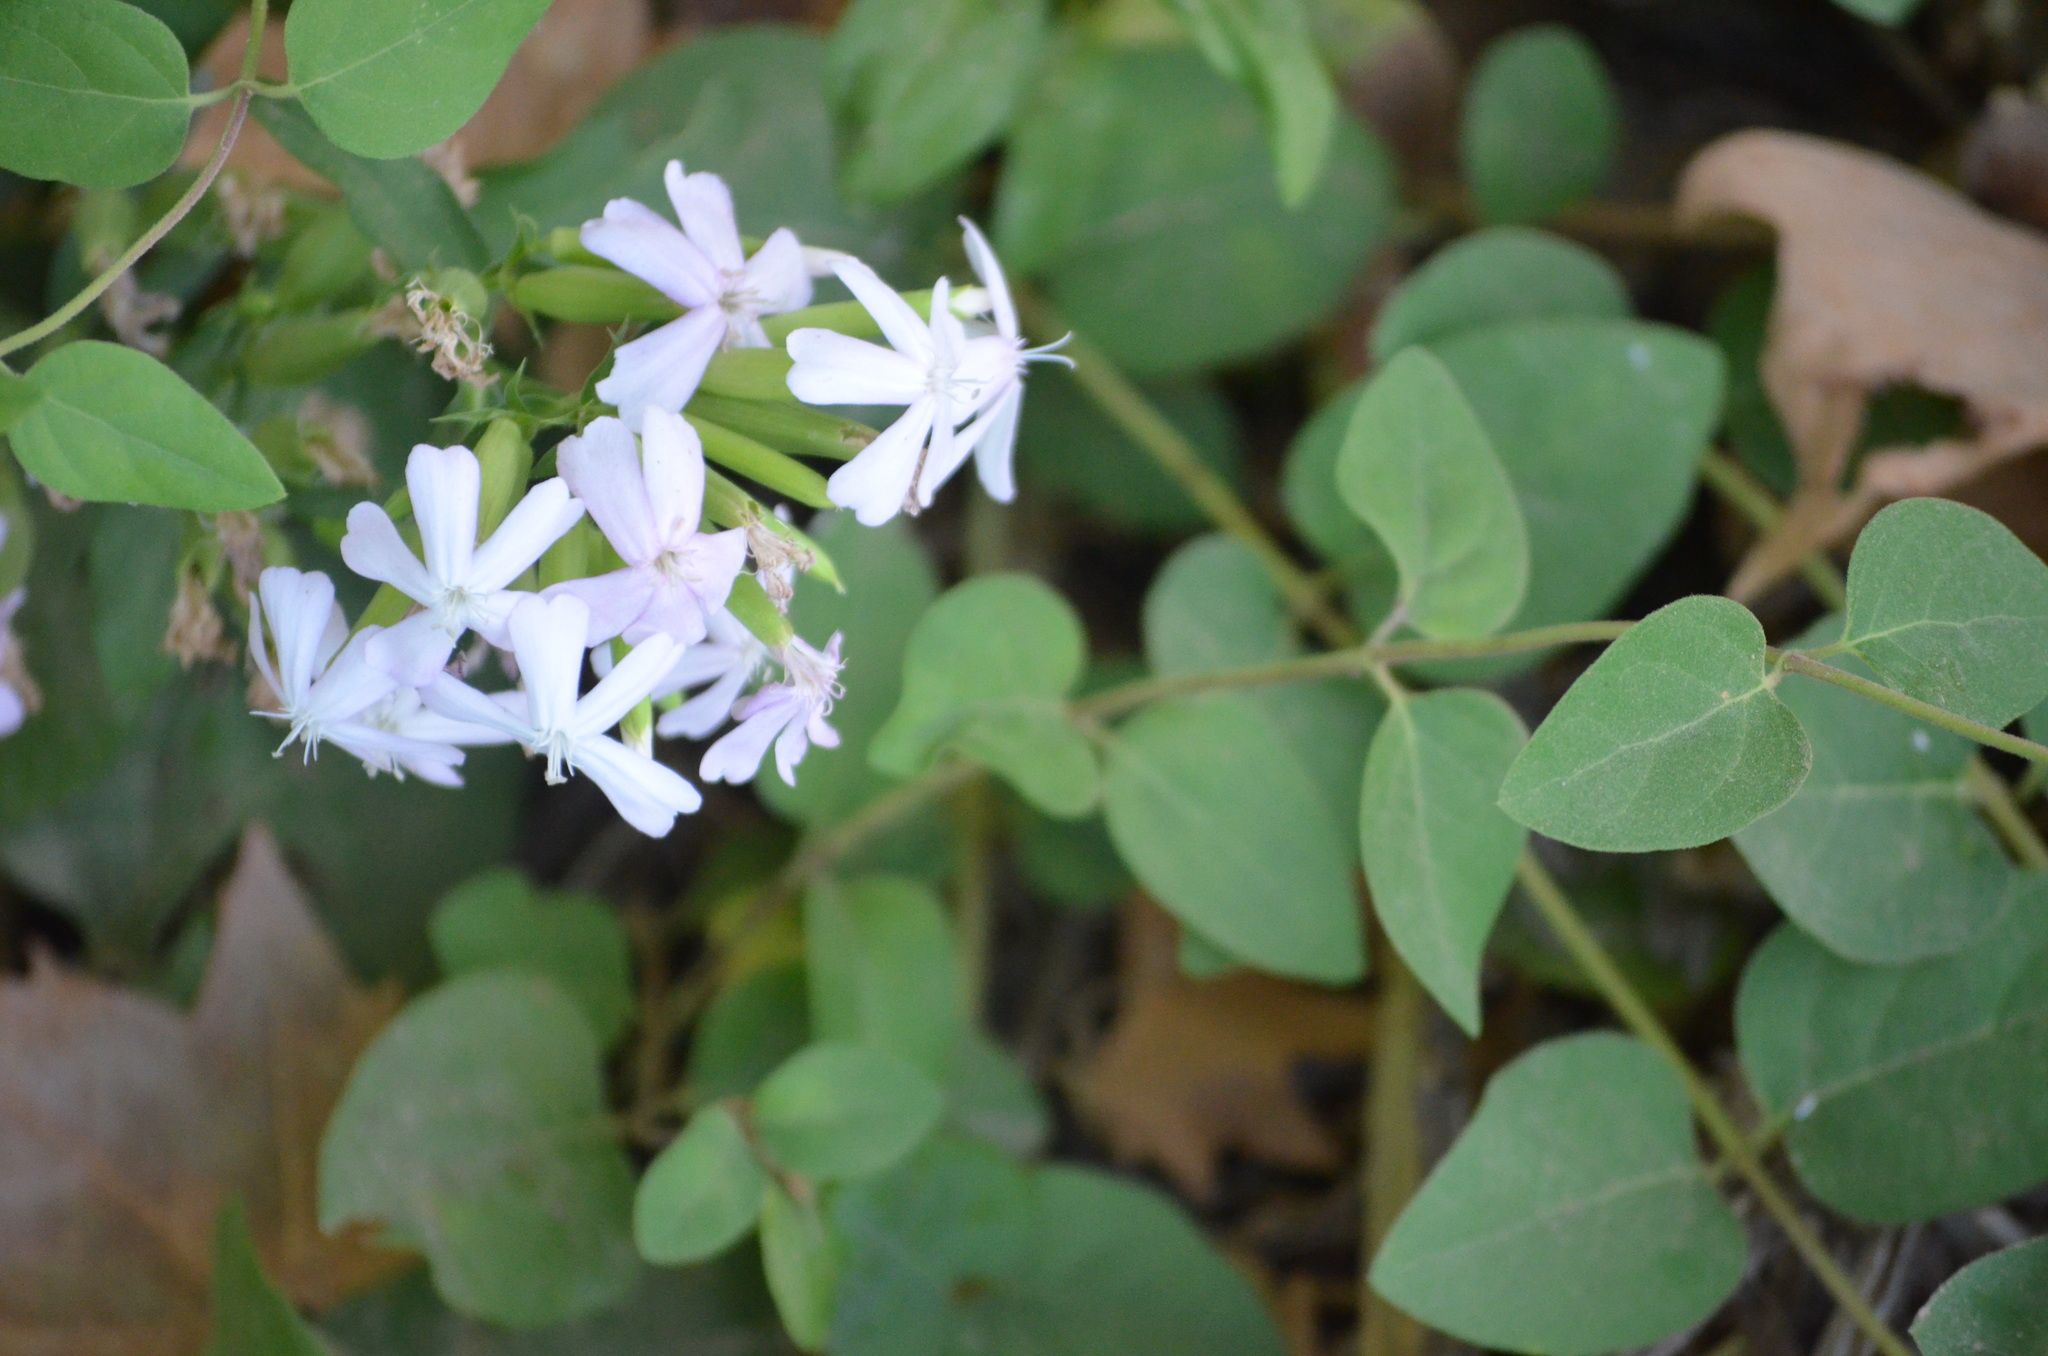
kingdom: Plantae
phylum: Tracheophyta
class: Magnoliopsida
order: Caryophyllales
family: Caryophyllaceae
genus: Saponaria
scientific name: Saponaria officinalis
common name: Soapwort
